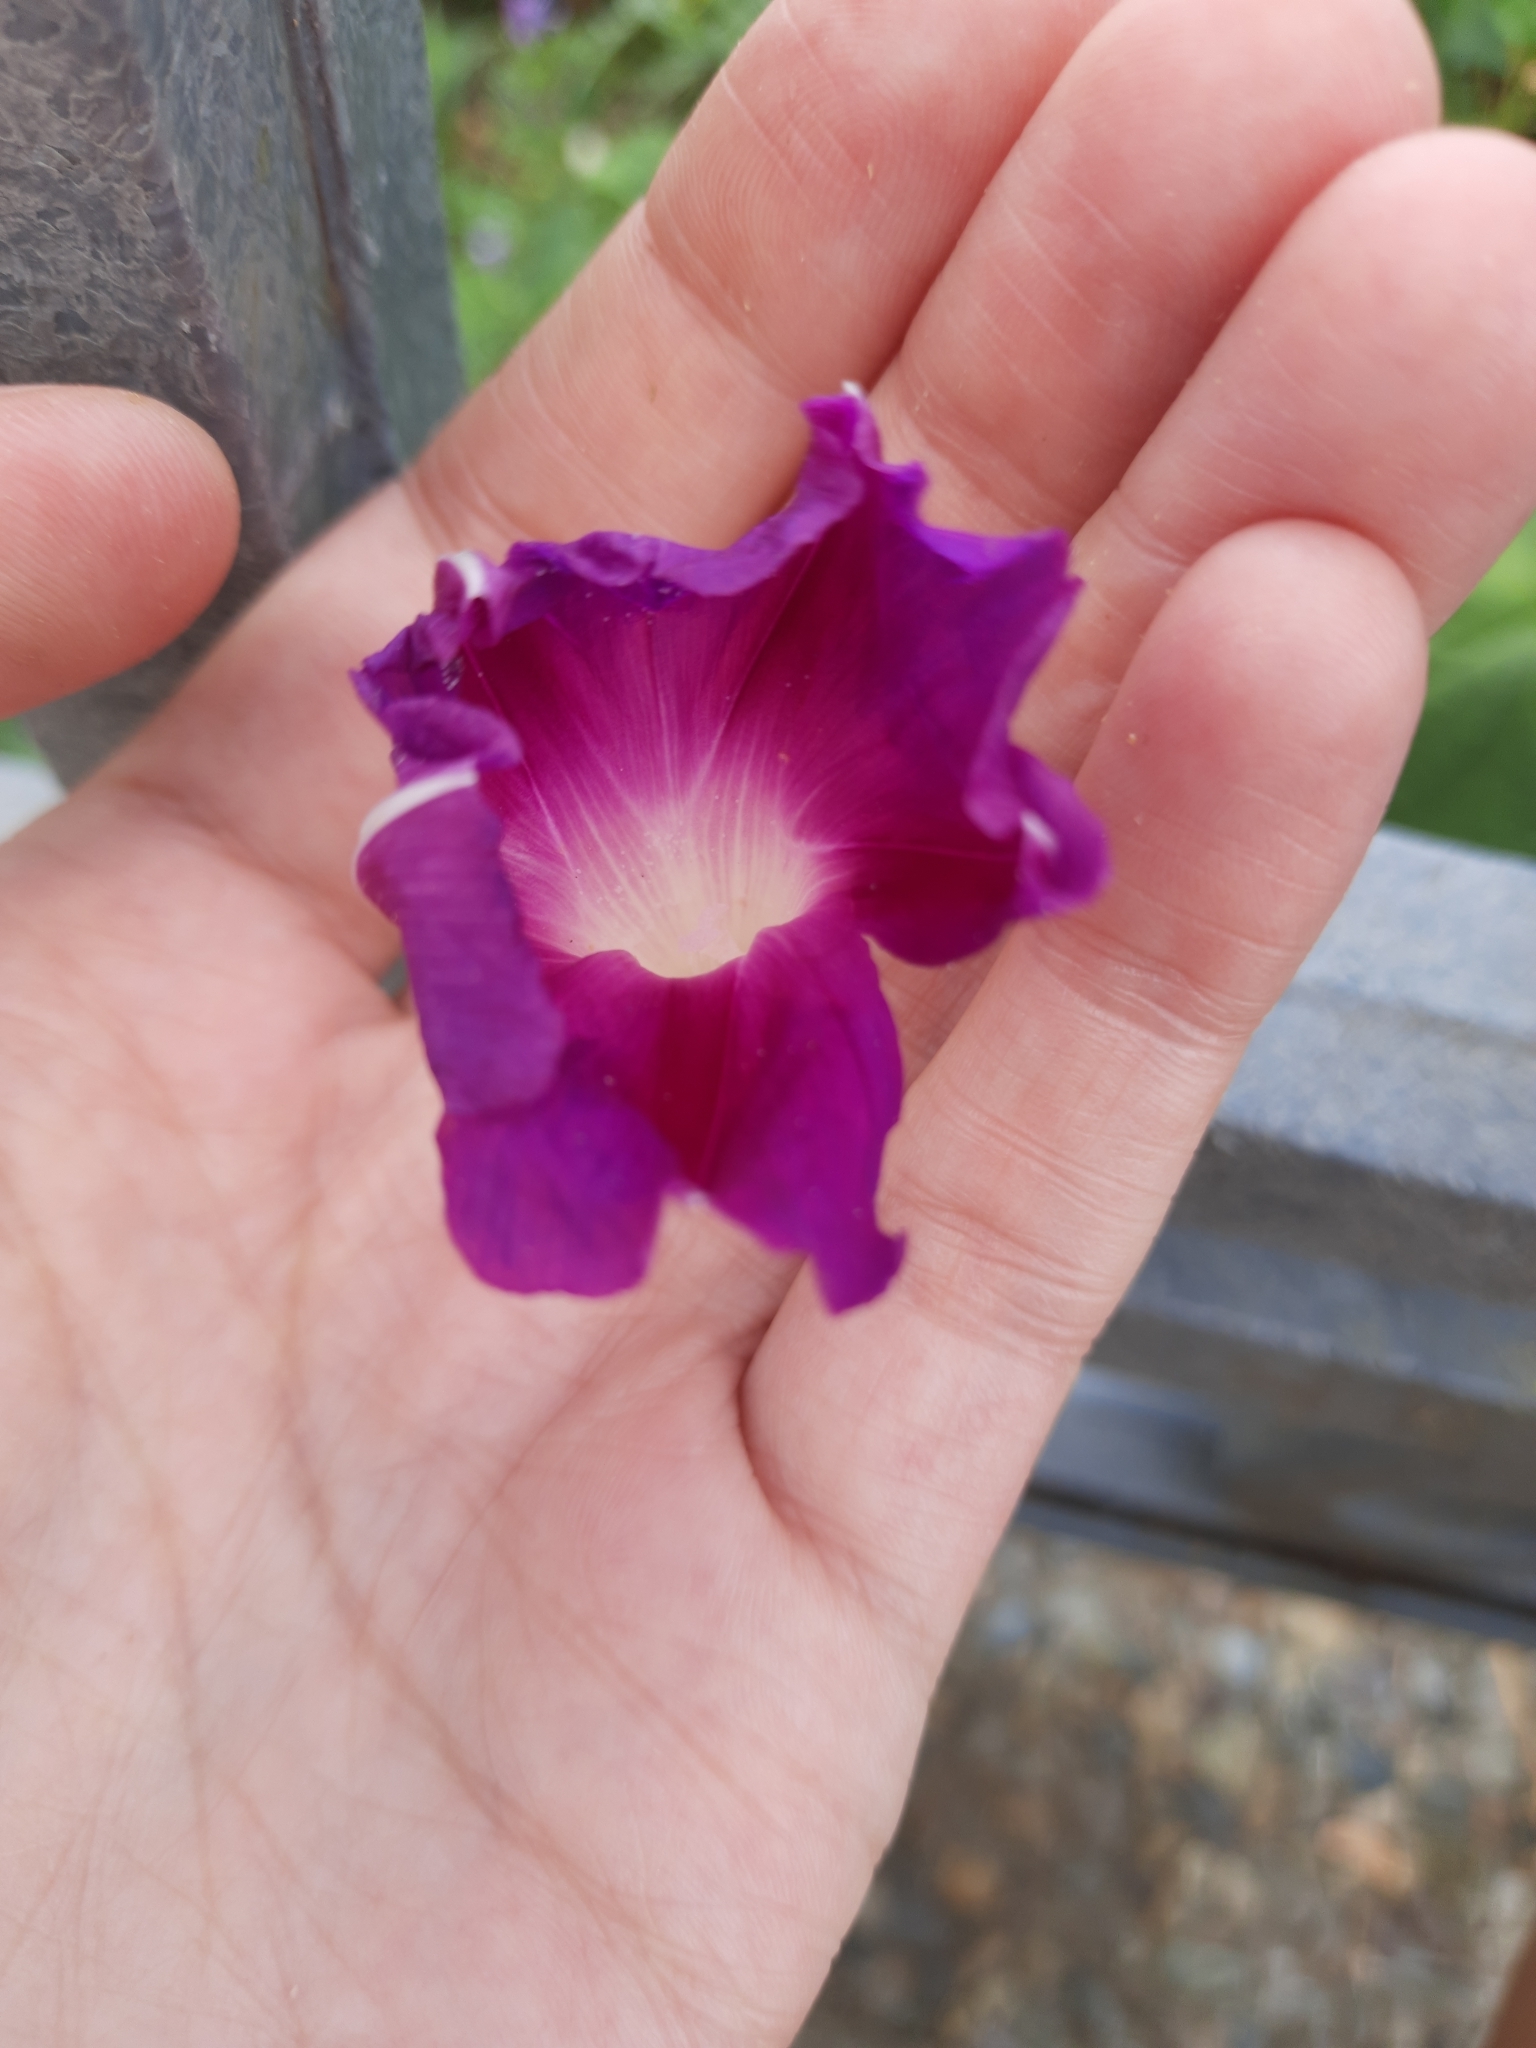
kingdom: Plantae
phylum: Tracheophyta
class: Magnoliopsida
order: Solanales
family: Convolvulaceae
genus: Ipomoea
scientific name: Ipomoea purpurea
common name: Common morning-glory
